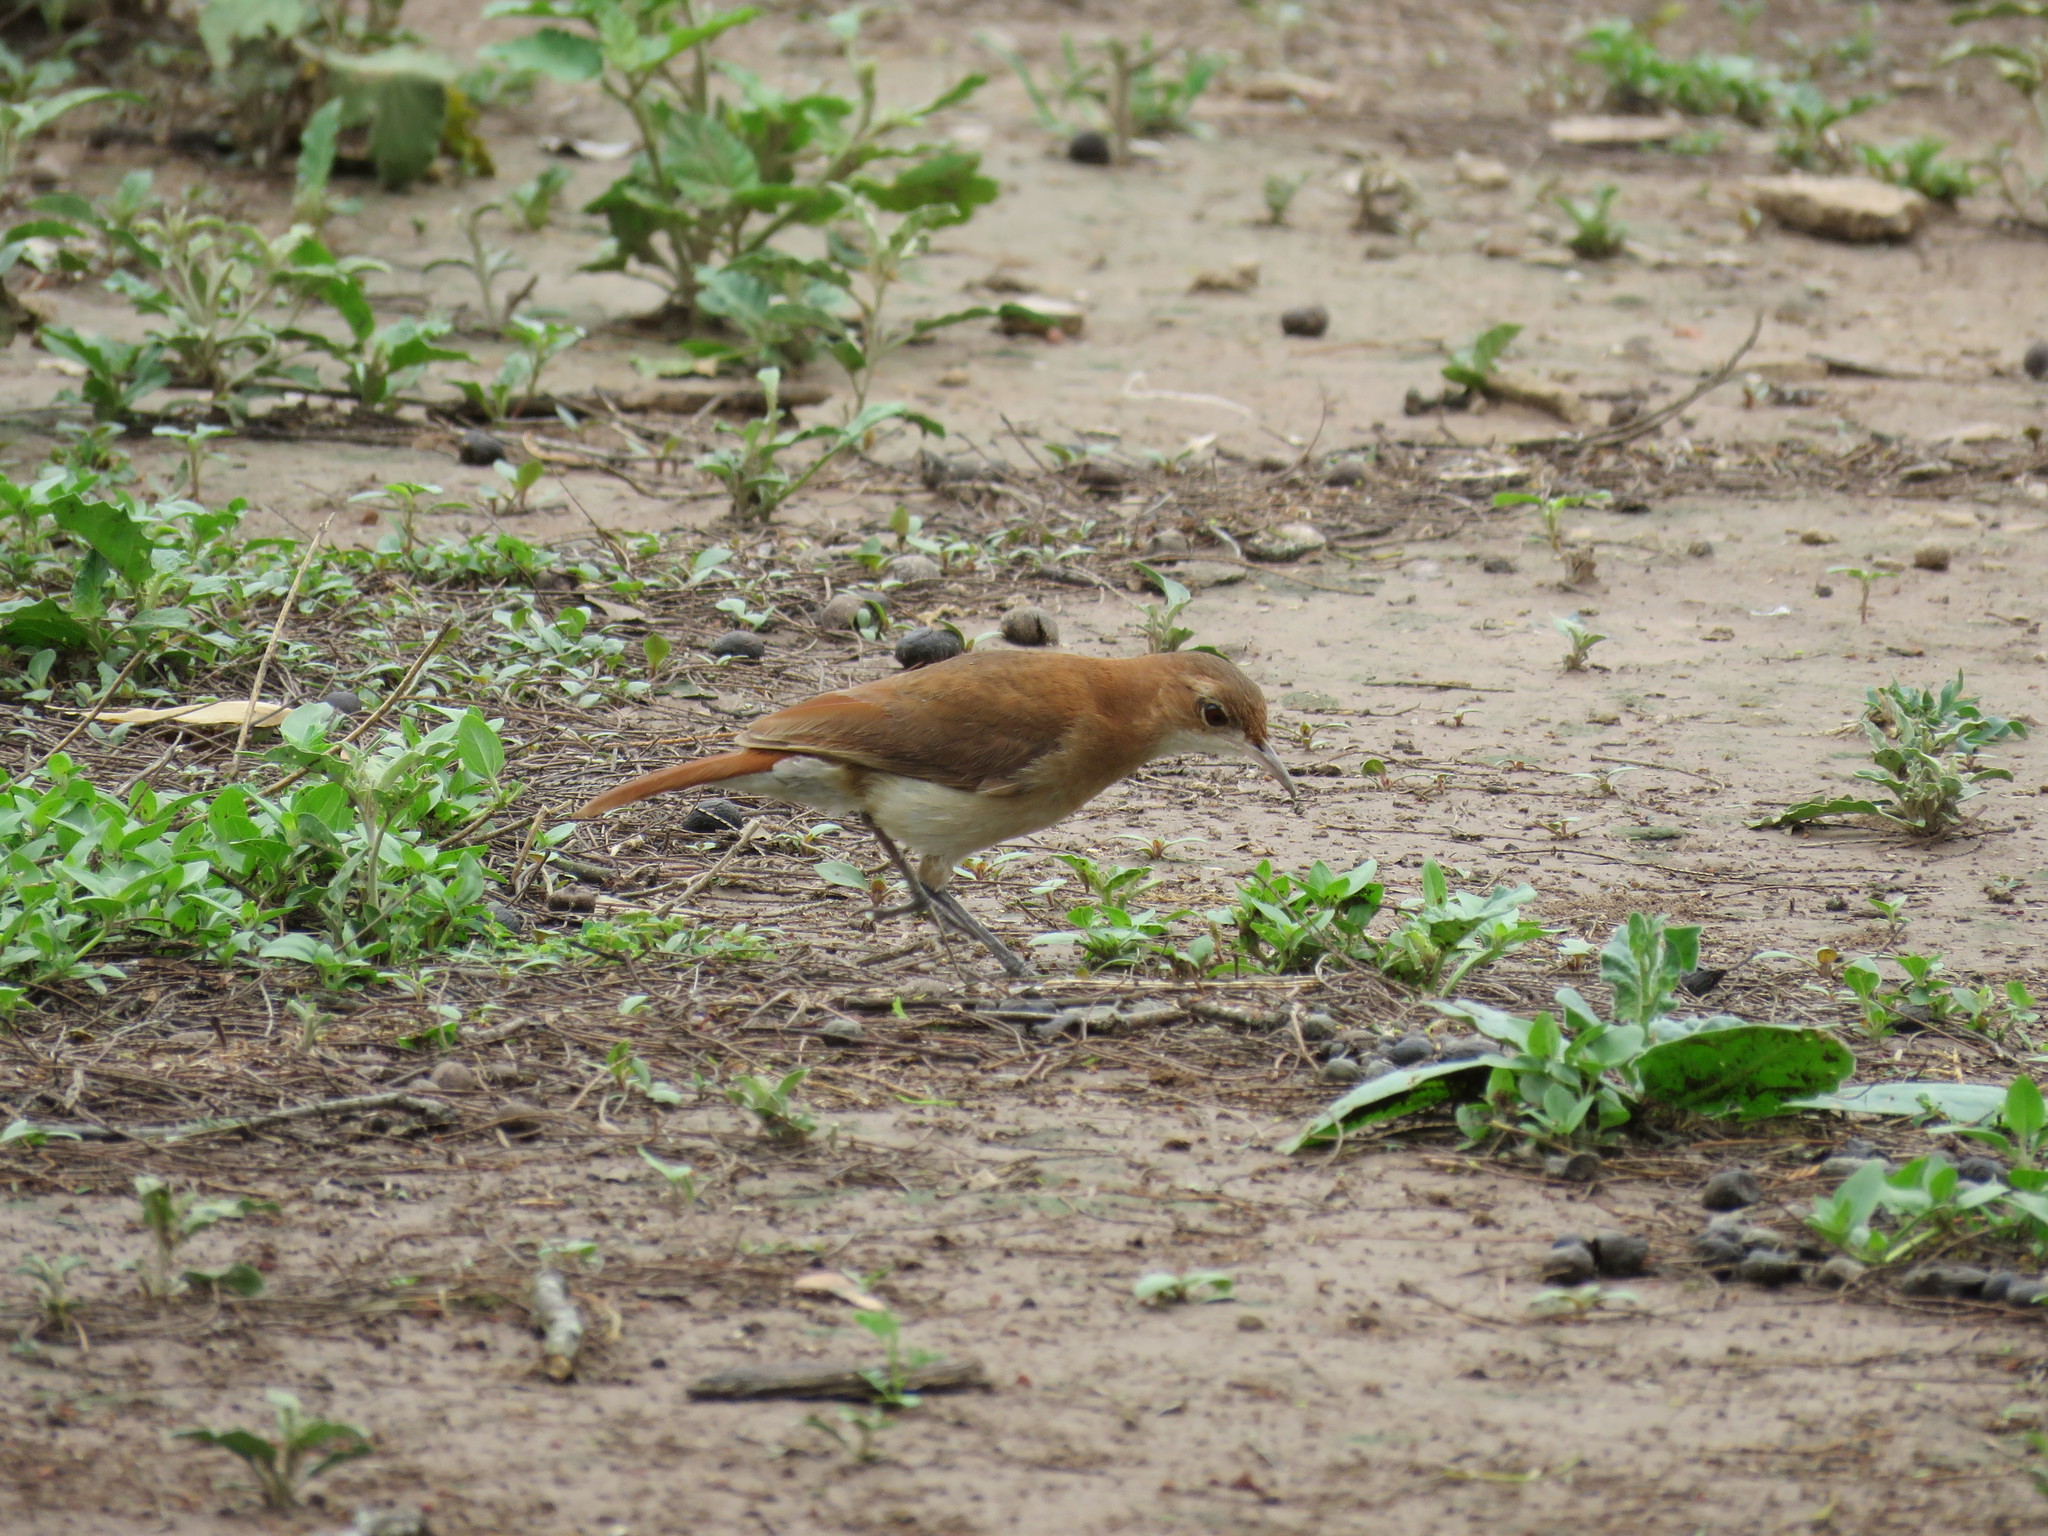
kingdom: Animalia
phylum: Chordata
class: Aves
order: Passeriformes
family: Furnariidae
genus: Furnarius
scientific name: Furnarius rufus
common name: Rufous hornero
